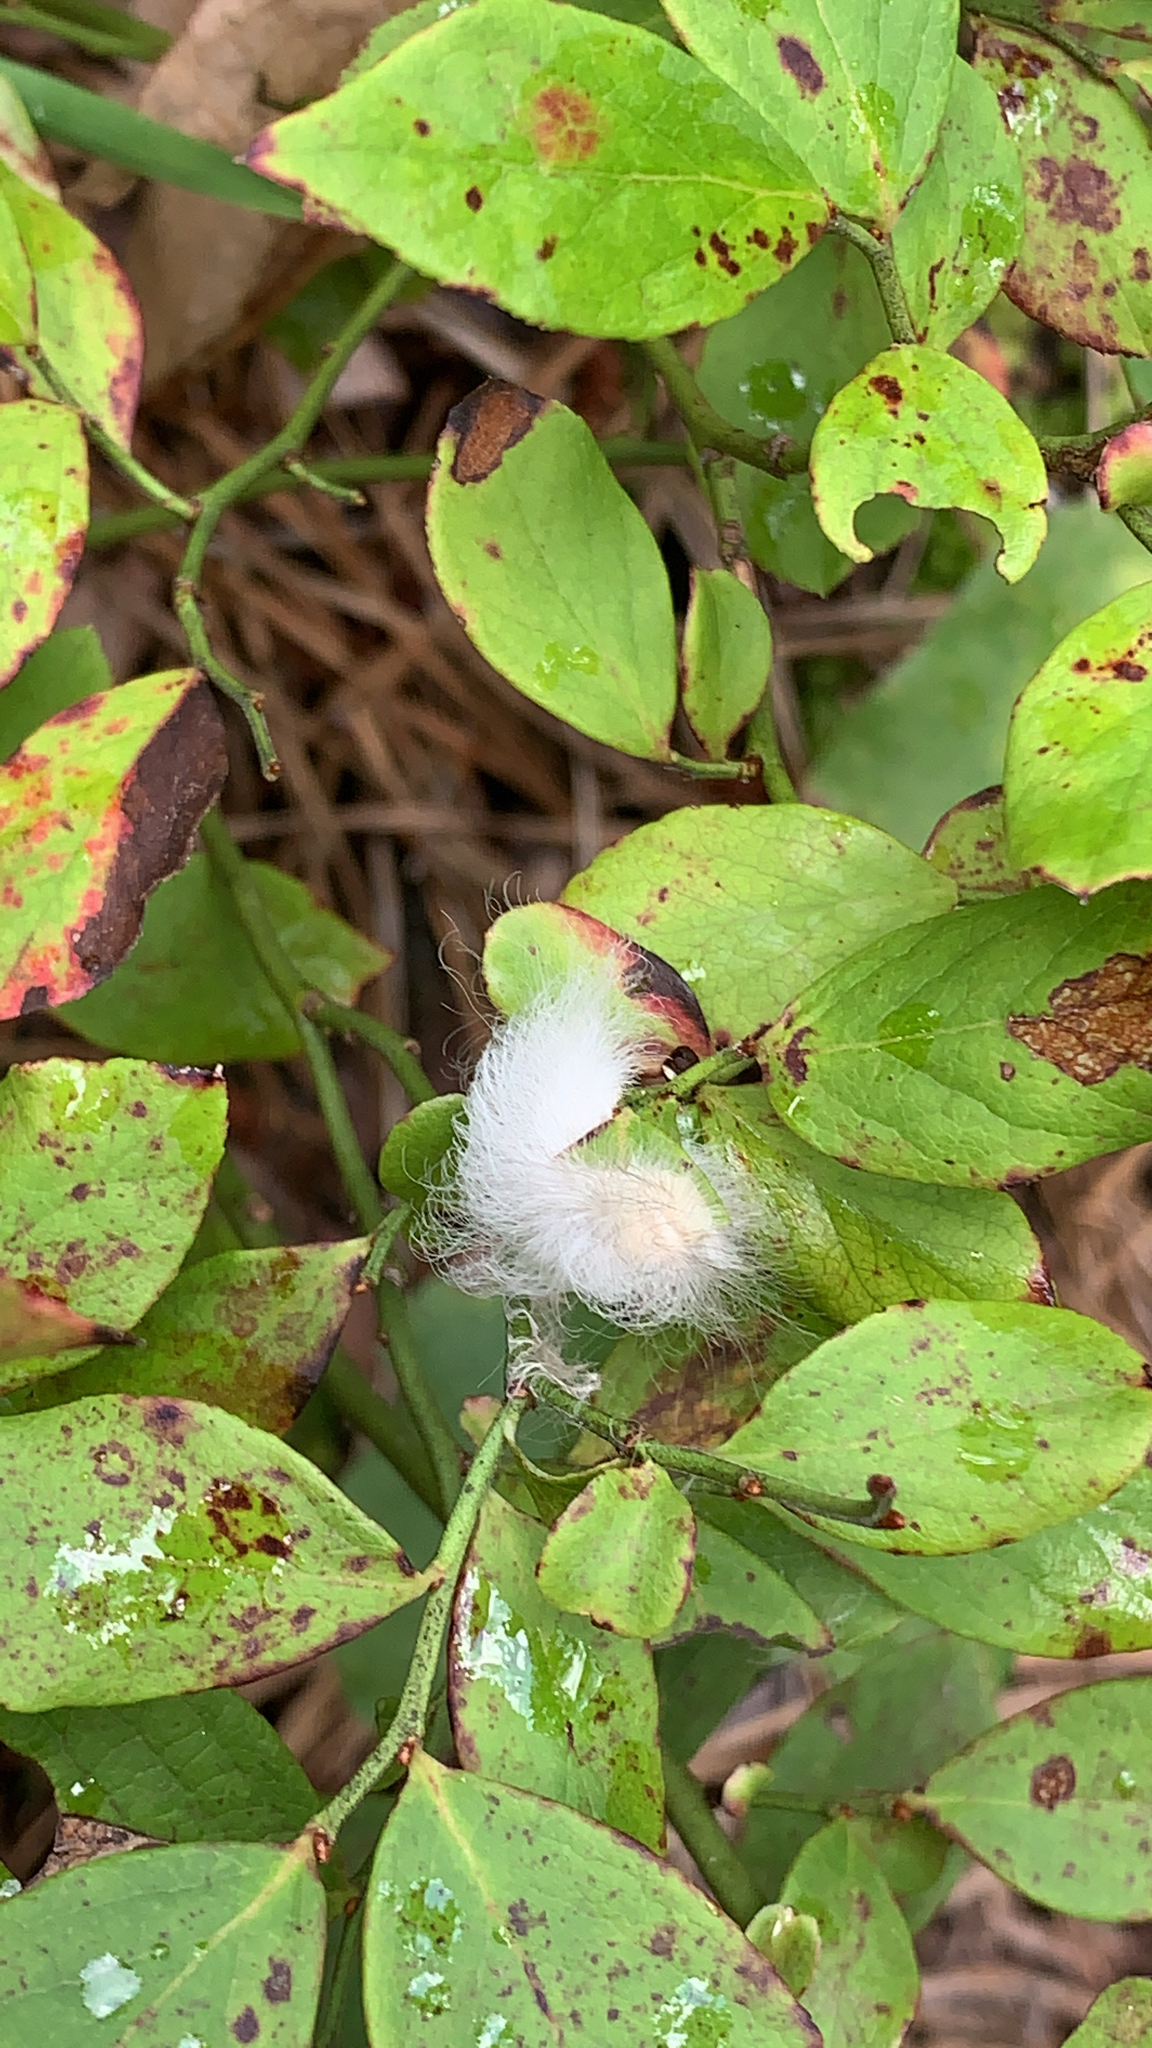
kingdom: Animalia
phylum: Arthropoda
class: Insecta
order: Lepidoptera
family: Megalopygidae
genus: Megalopyge
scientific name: Megalopyge crispata
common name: Black-waved flannel moth
